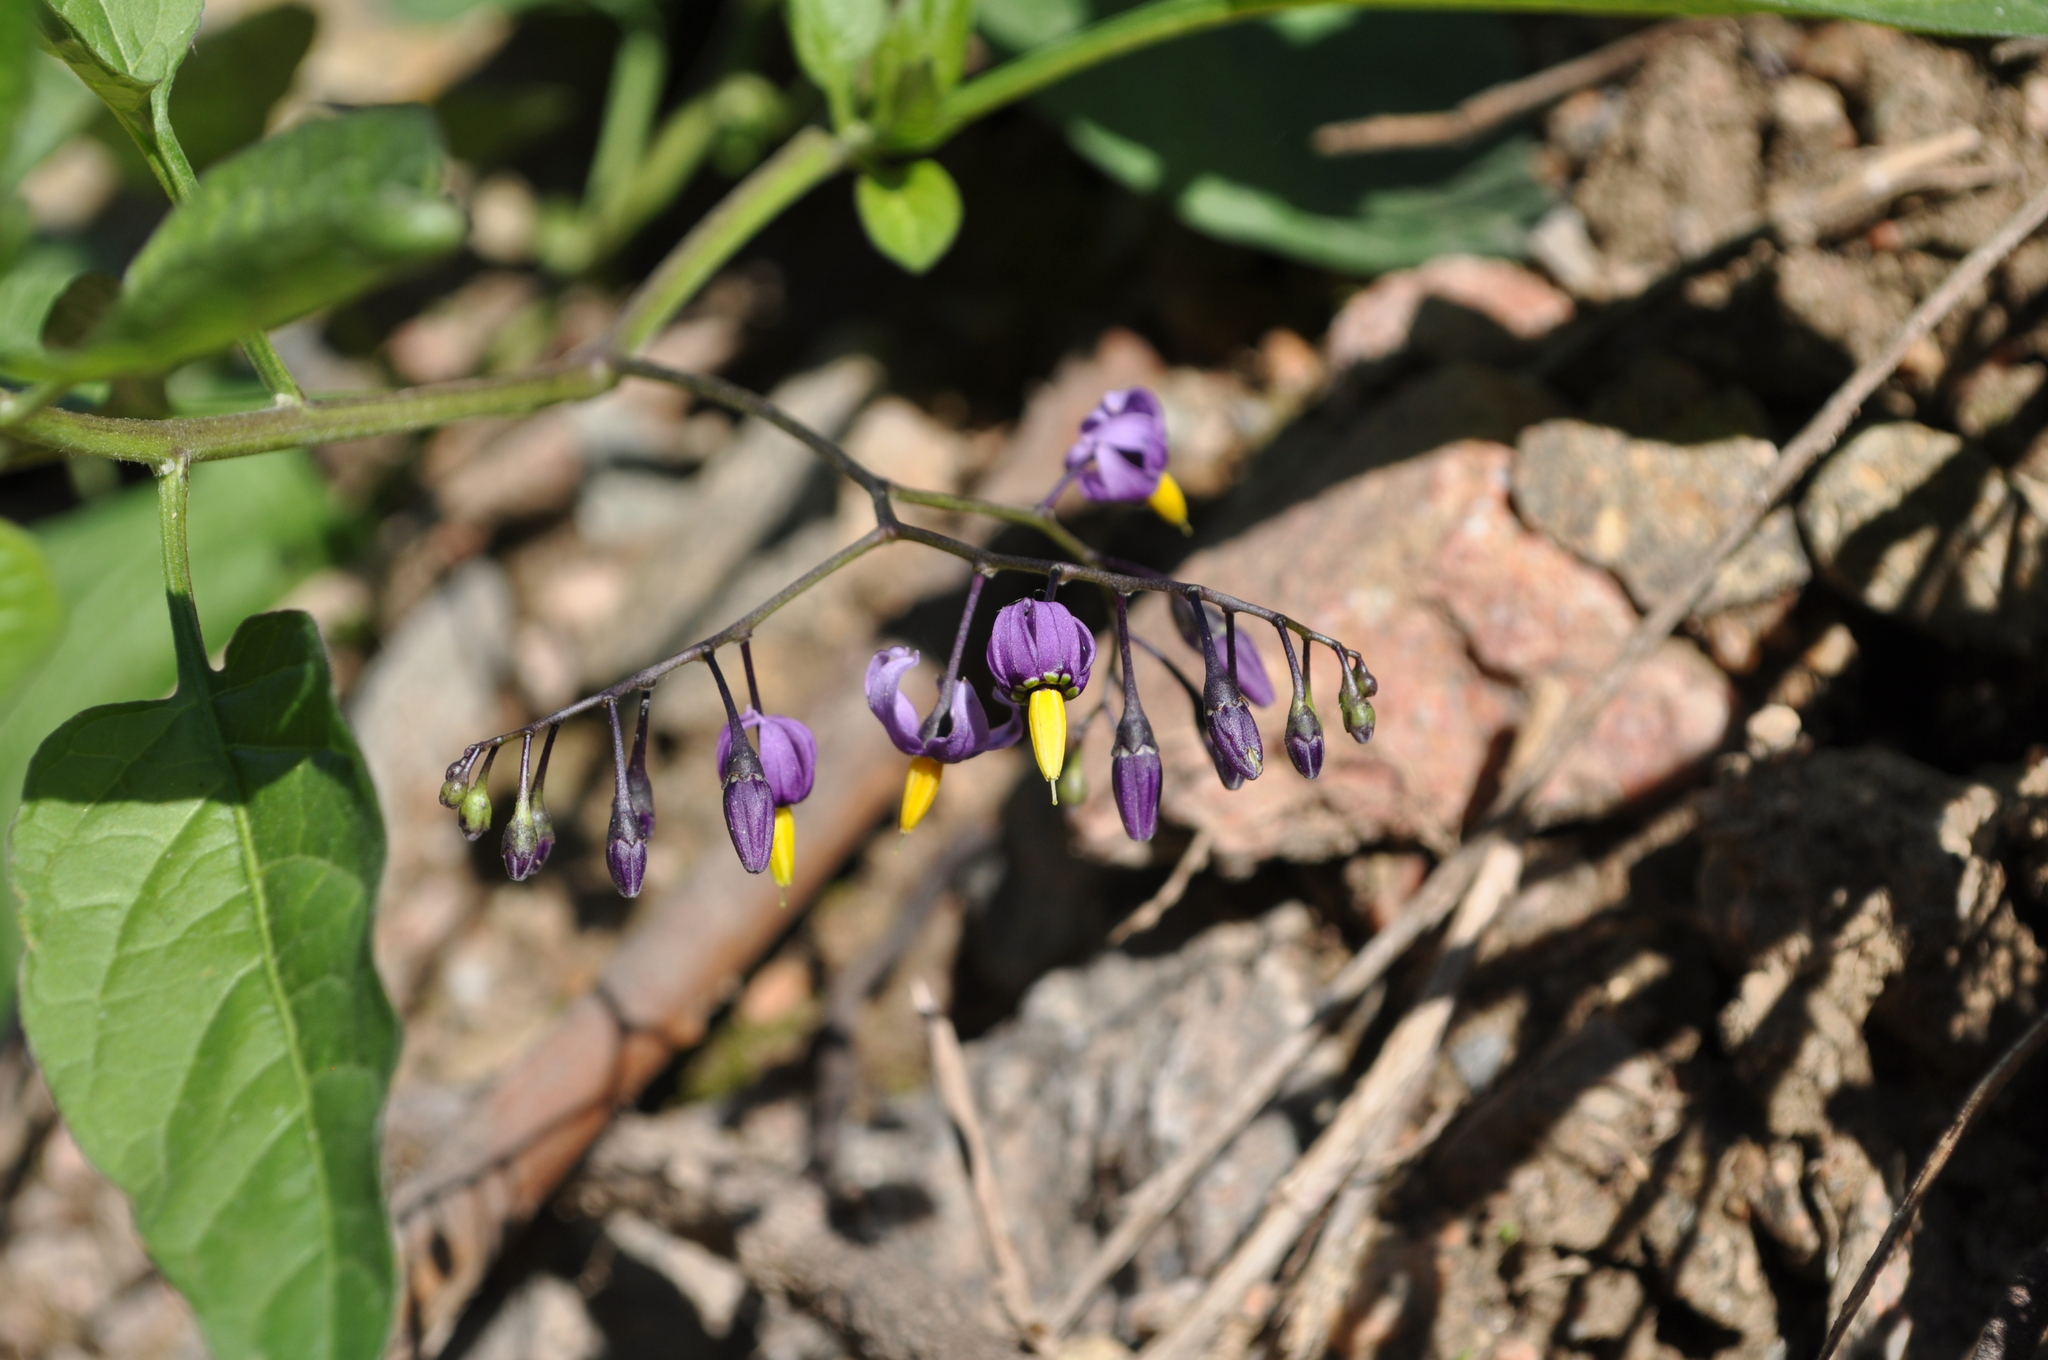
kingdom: Plantae
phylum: Tracheophyta
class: Magnoliopsida
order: Solanales
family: Solanaceae
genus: Solanum
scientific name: Solanum dulcamara
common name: Climbing nightshade
